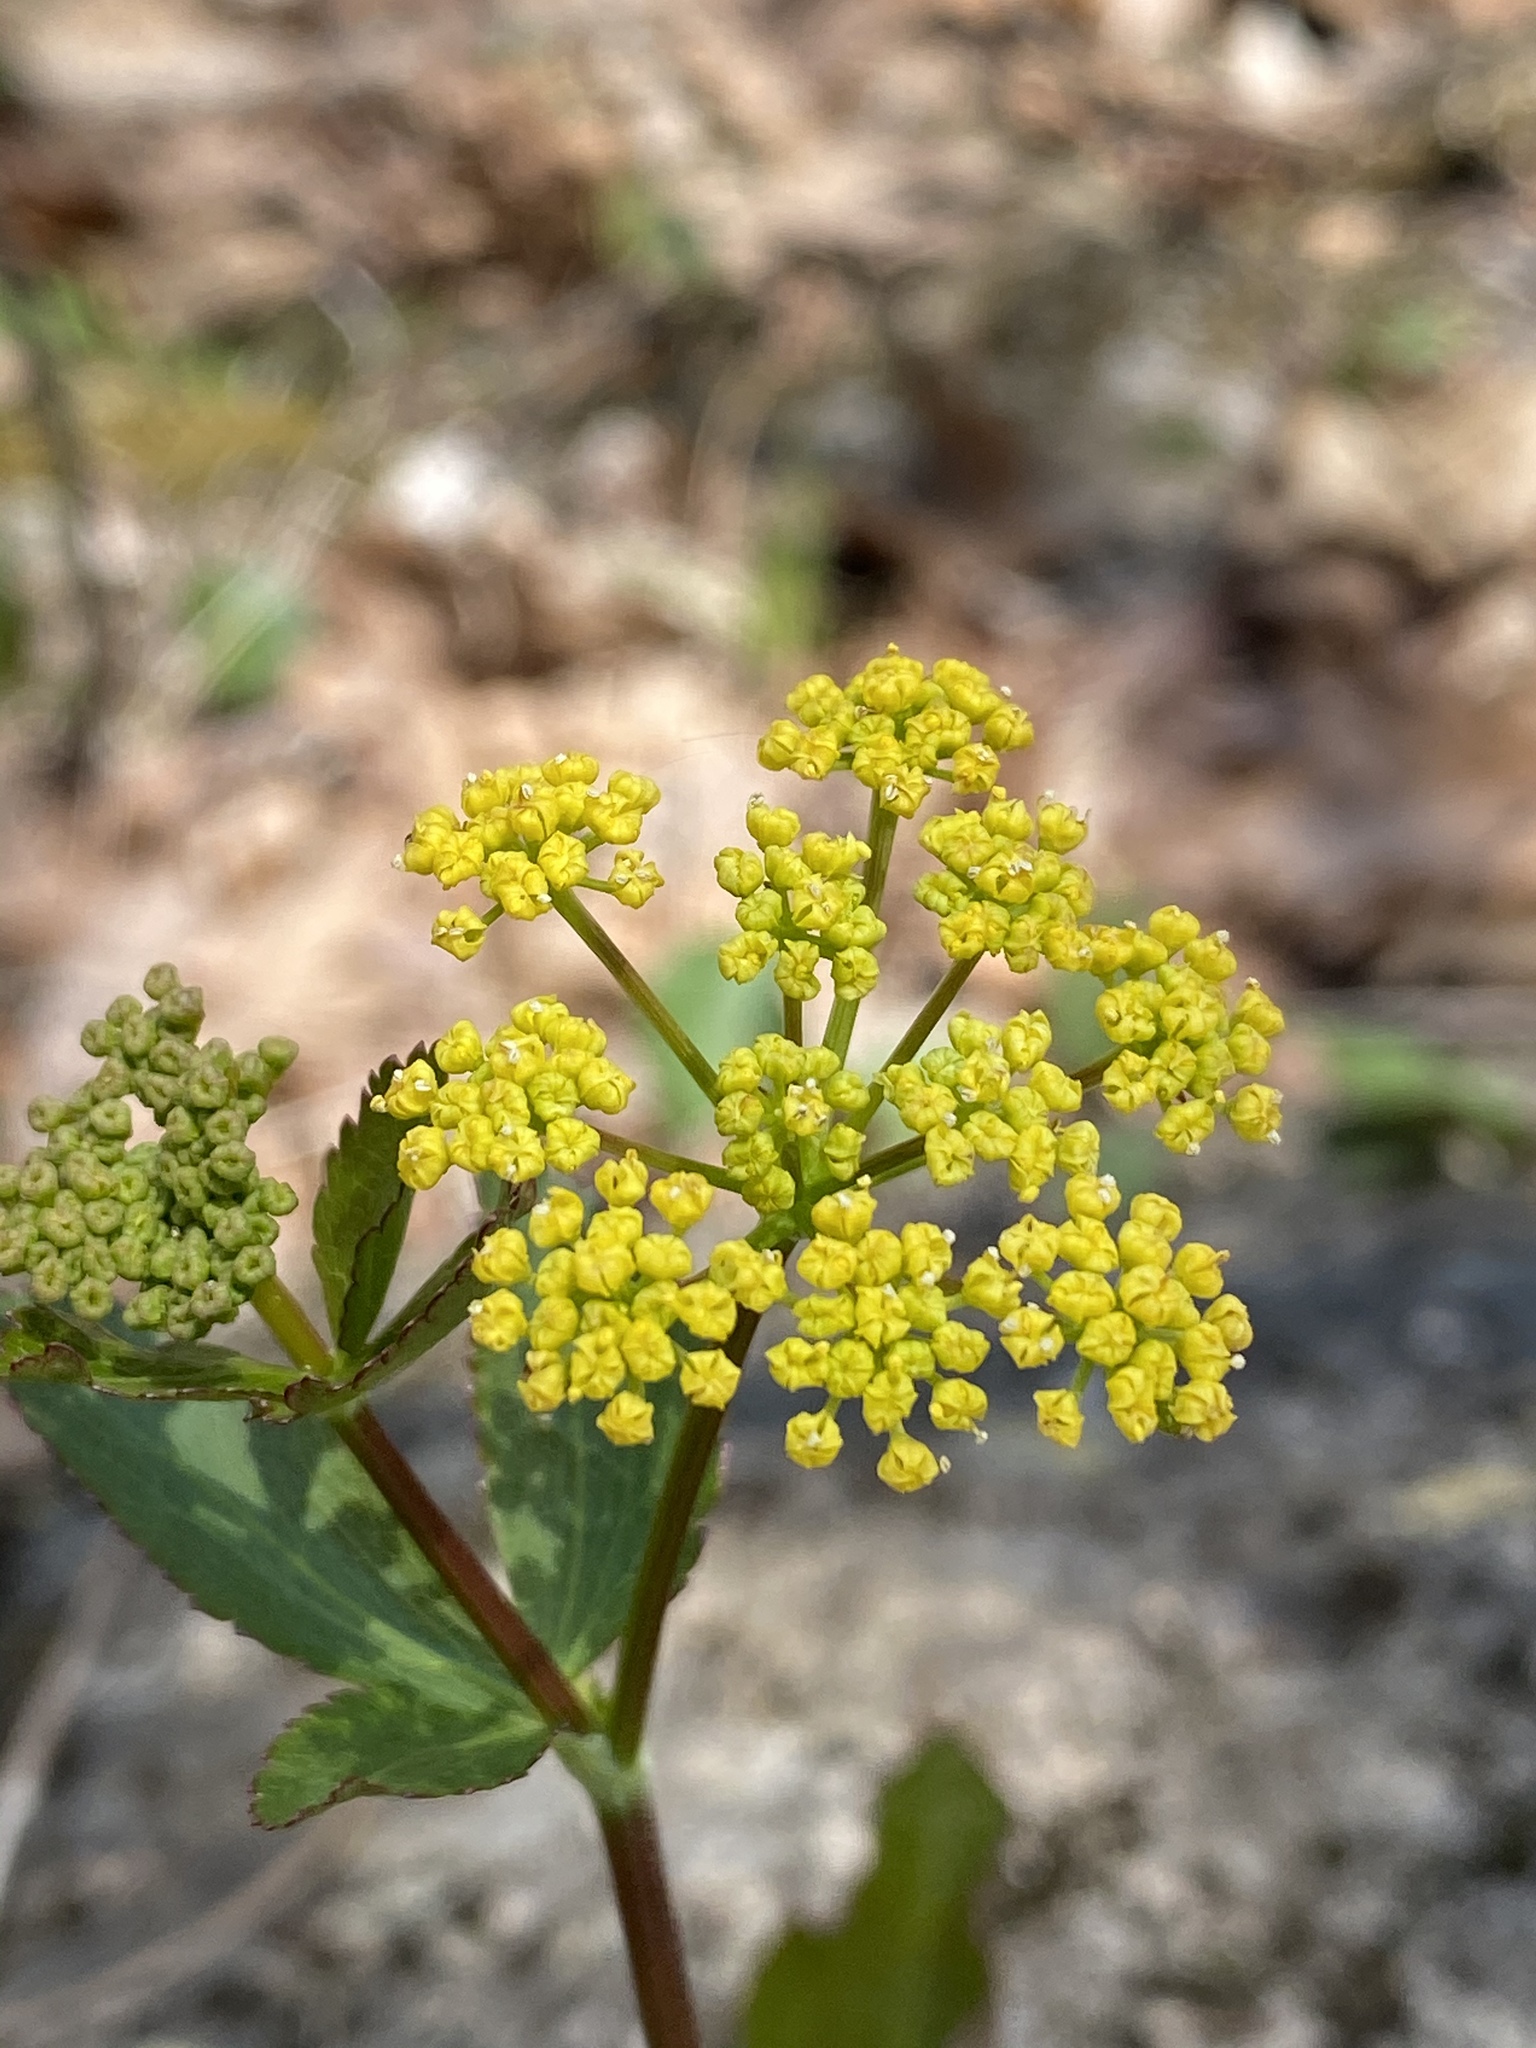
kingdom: Plantae
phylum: Tracheophyta
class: Magnoliopsida
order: Apiales
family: Apiaceae
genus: Zizia
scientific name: Zizia aptera
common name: Heart-leaved alexanders
